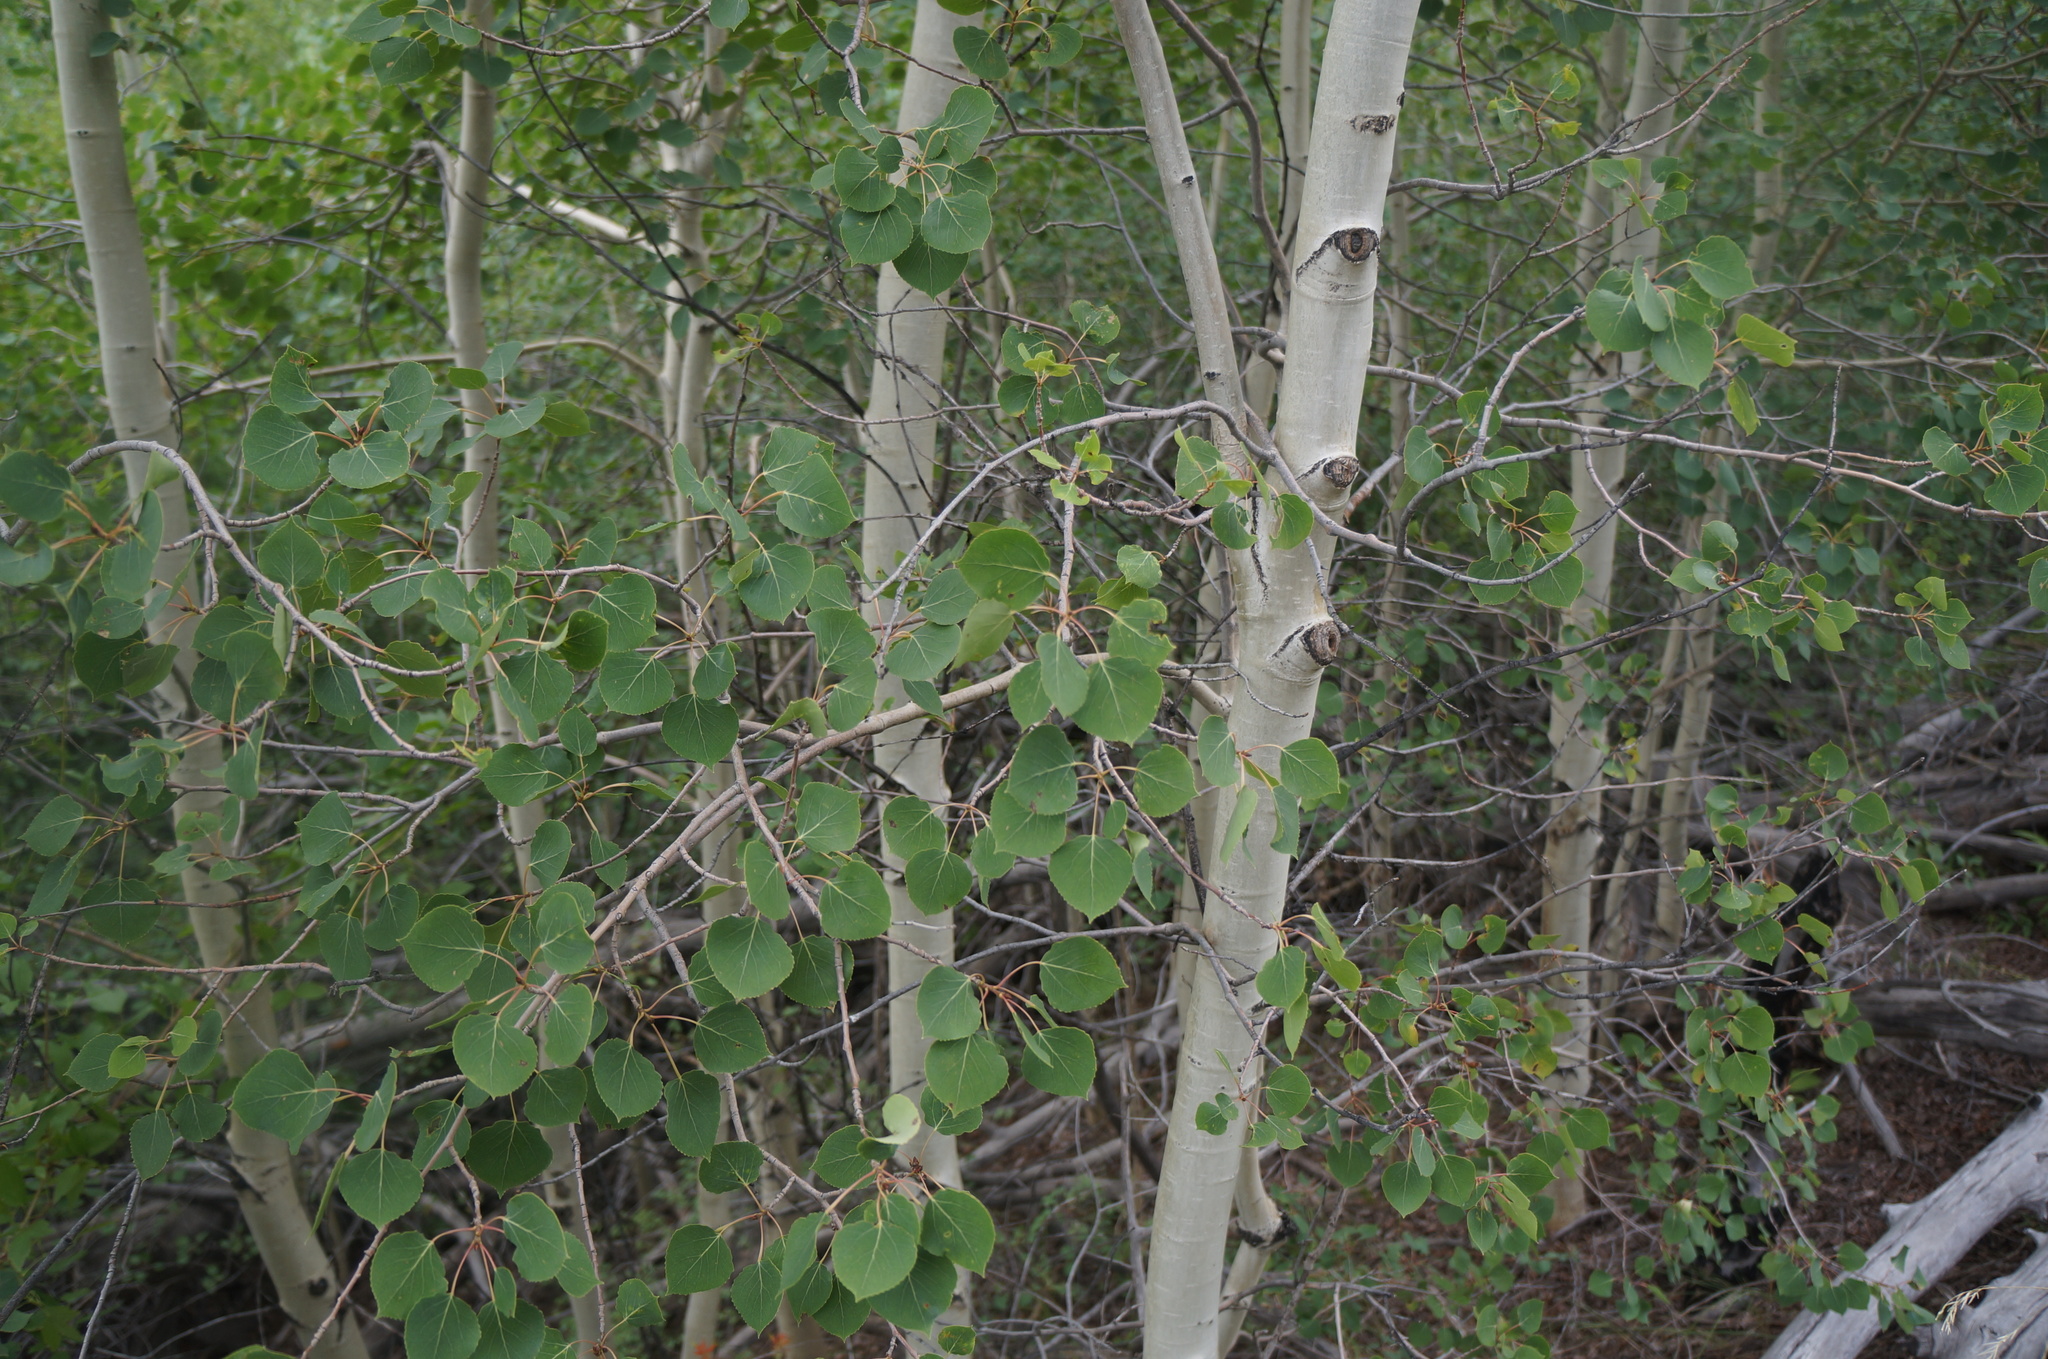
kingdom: Plantae
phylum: Tracheophyta
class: Magnoliopsida
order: Malpighiales
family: Salicaceae
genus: Populus
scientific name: Populus tremuloides
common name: Quaking aspen
